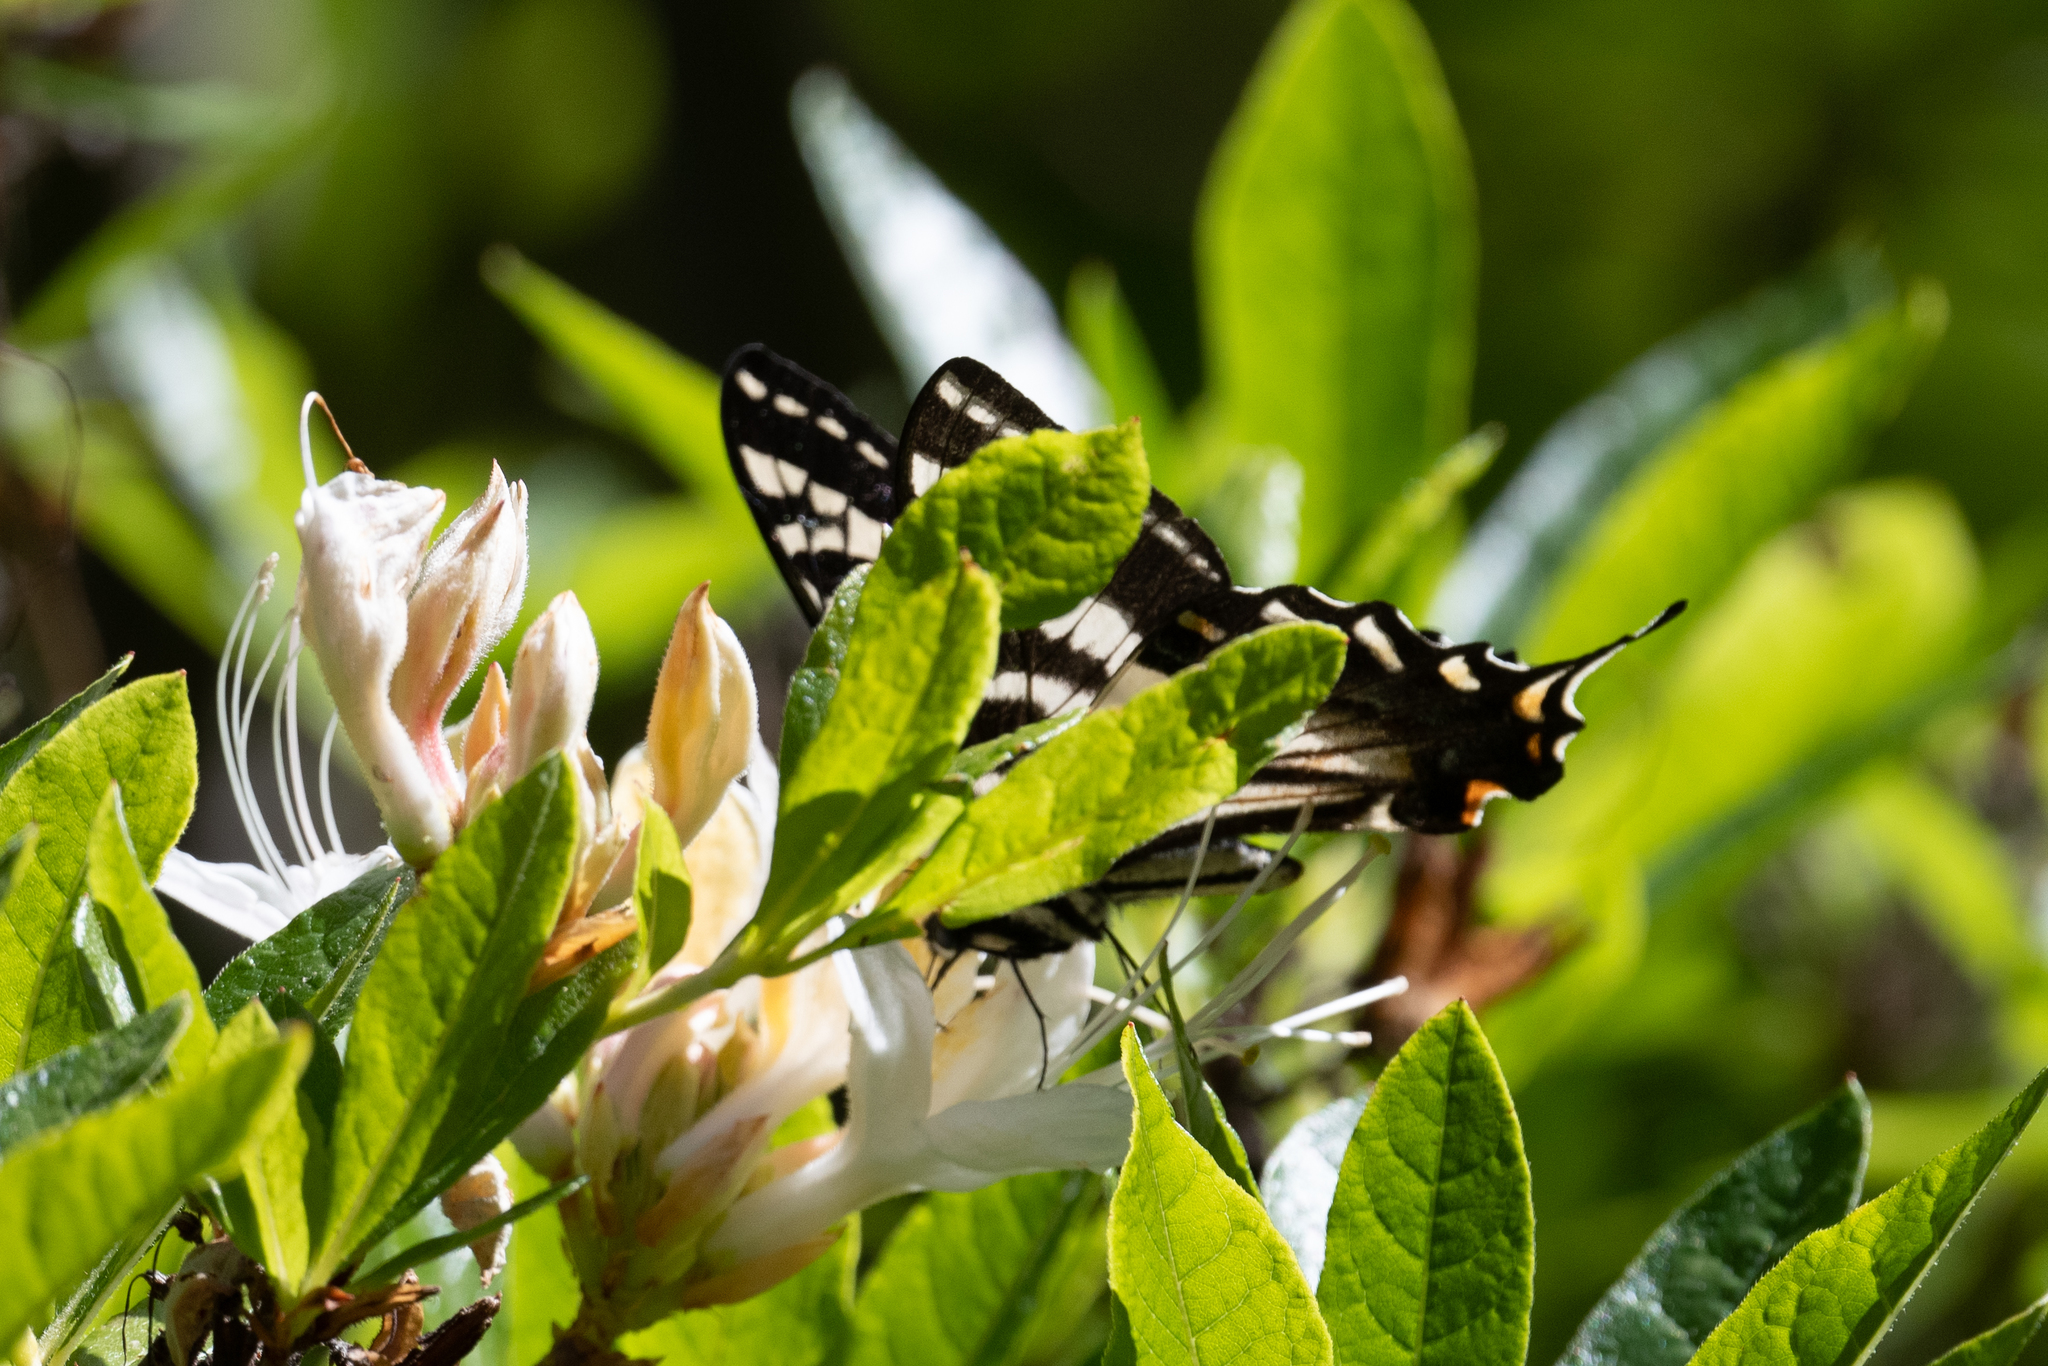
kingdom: Animalia
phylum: Arthropoda
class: Insecta
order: Lepidoptera
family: Papilionidae
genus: Papilio
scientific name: Papilio eurymedon
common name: Pale tiger swallowtail
